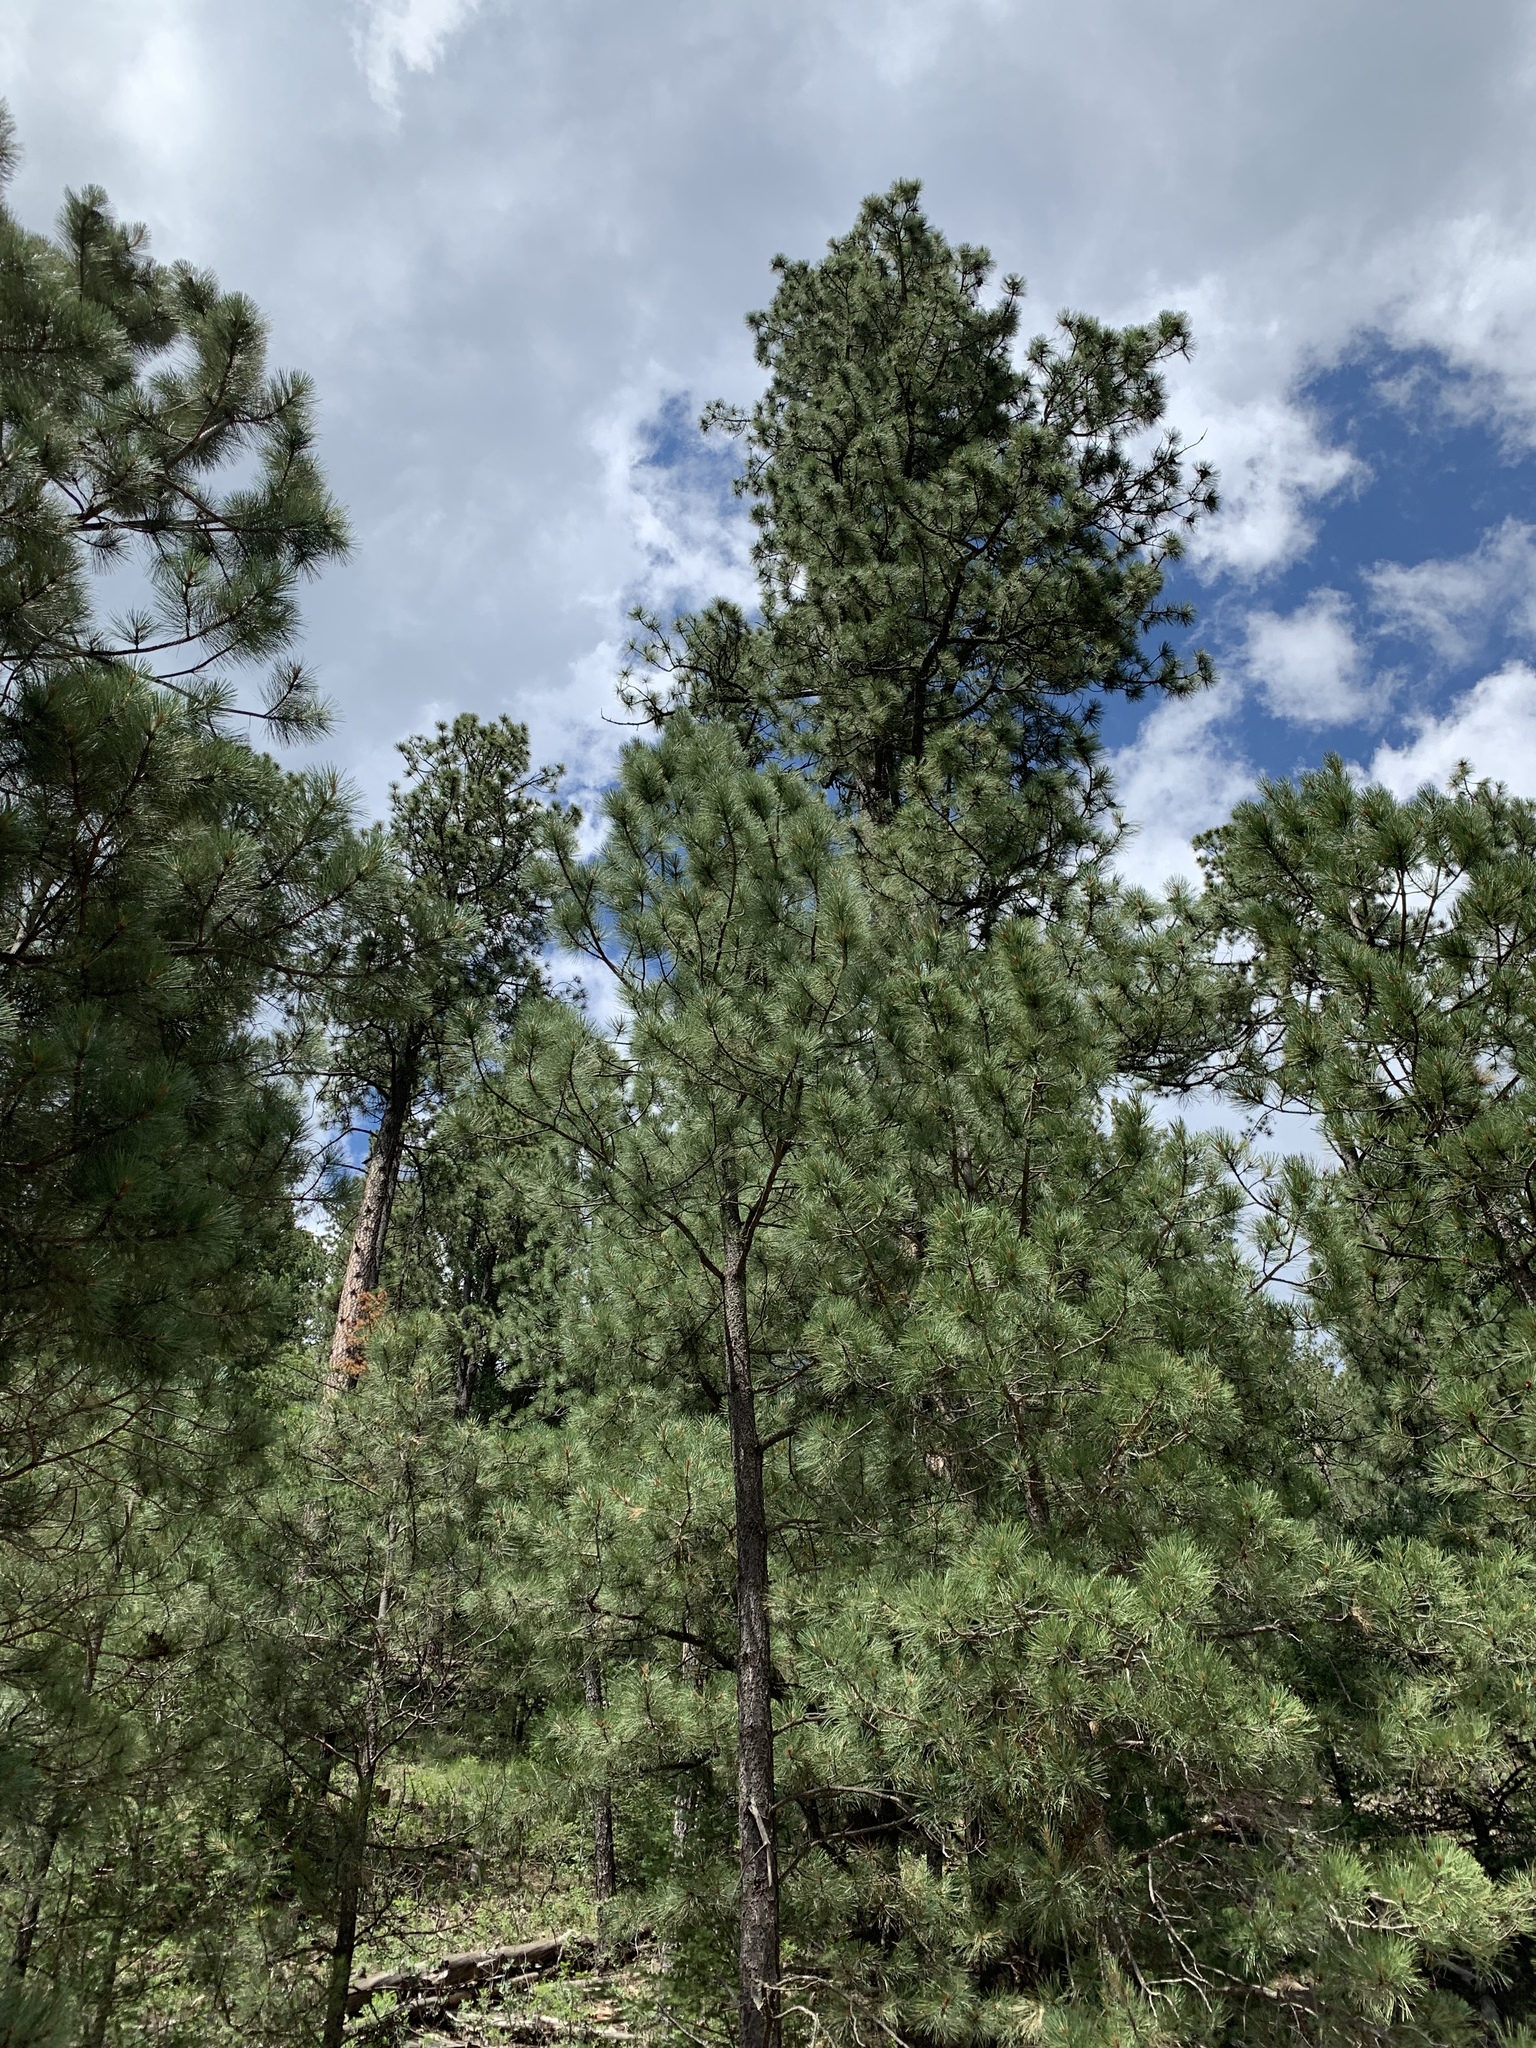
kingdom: Plantae
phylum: Tracheophyta
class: Pinopsida
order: Pinales
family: Pinaceae
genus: Pinus
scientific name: Pinus ponderosa
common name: Western yellow-pine
